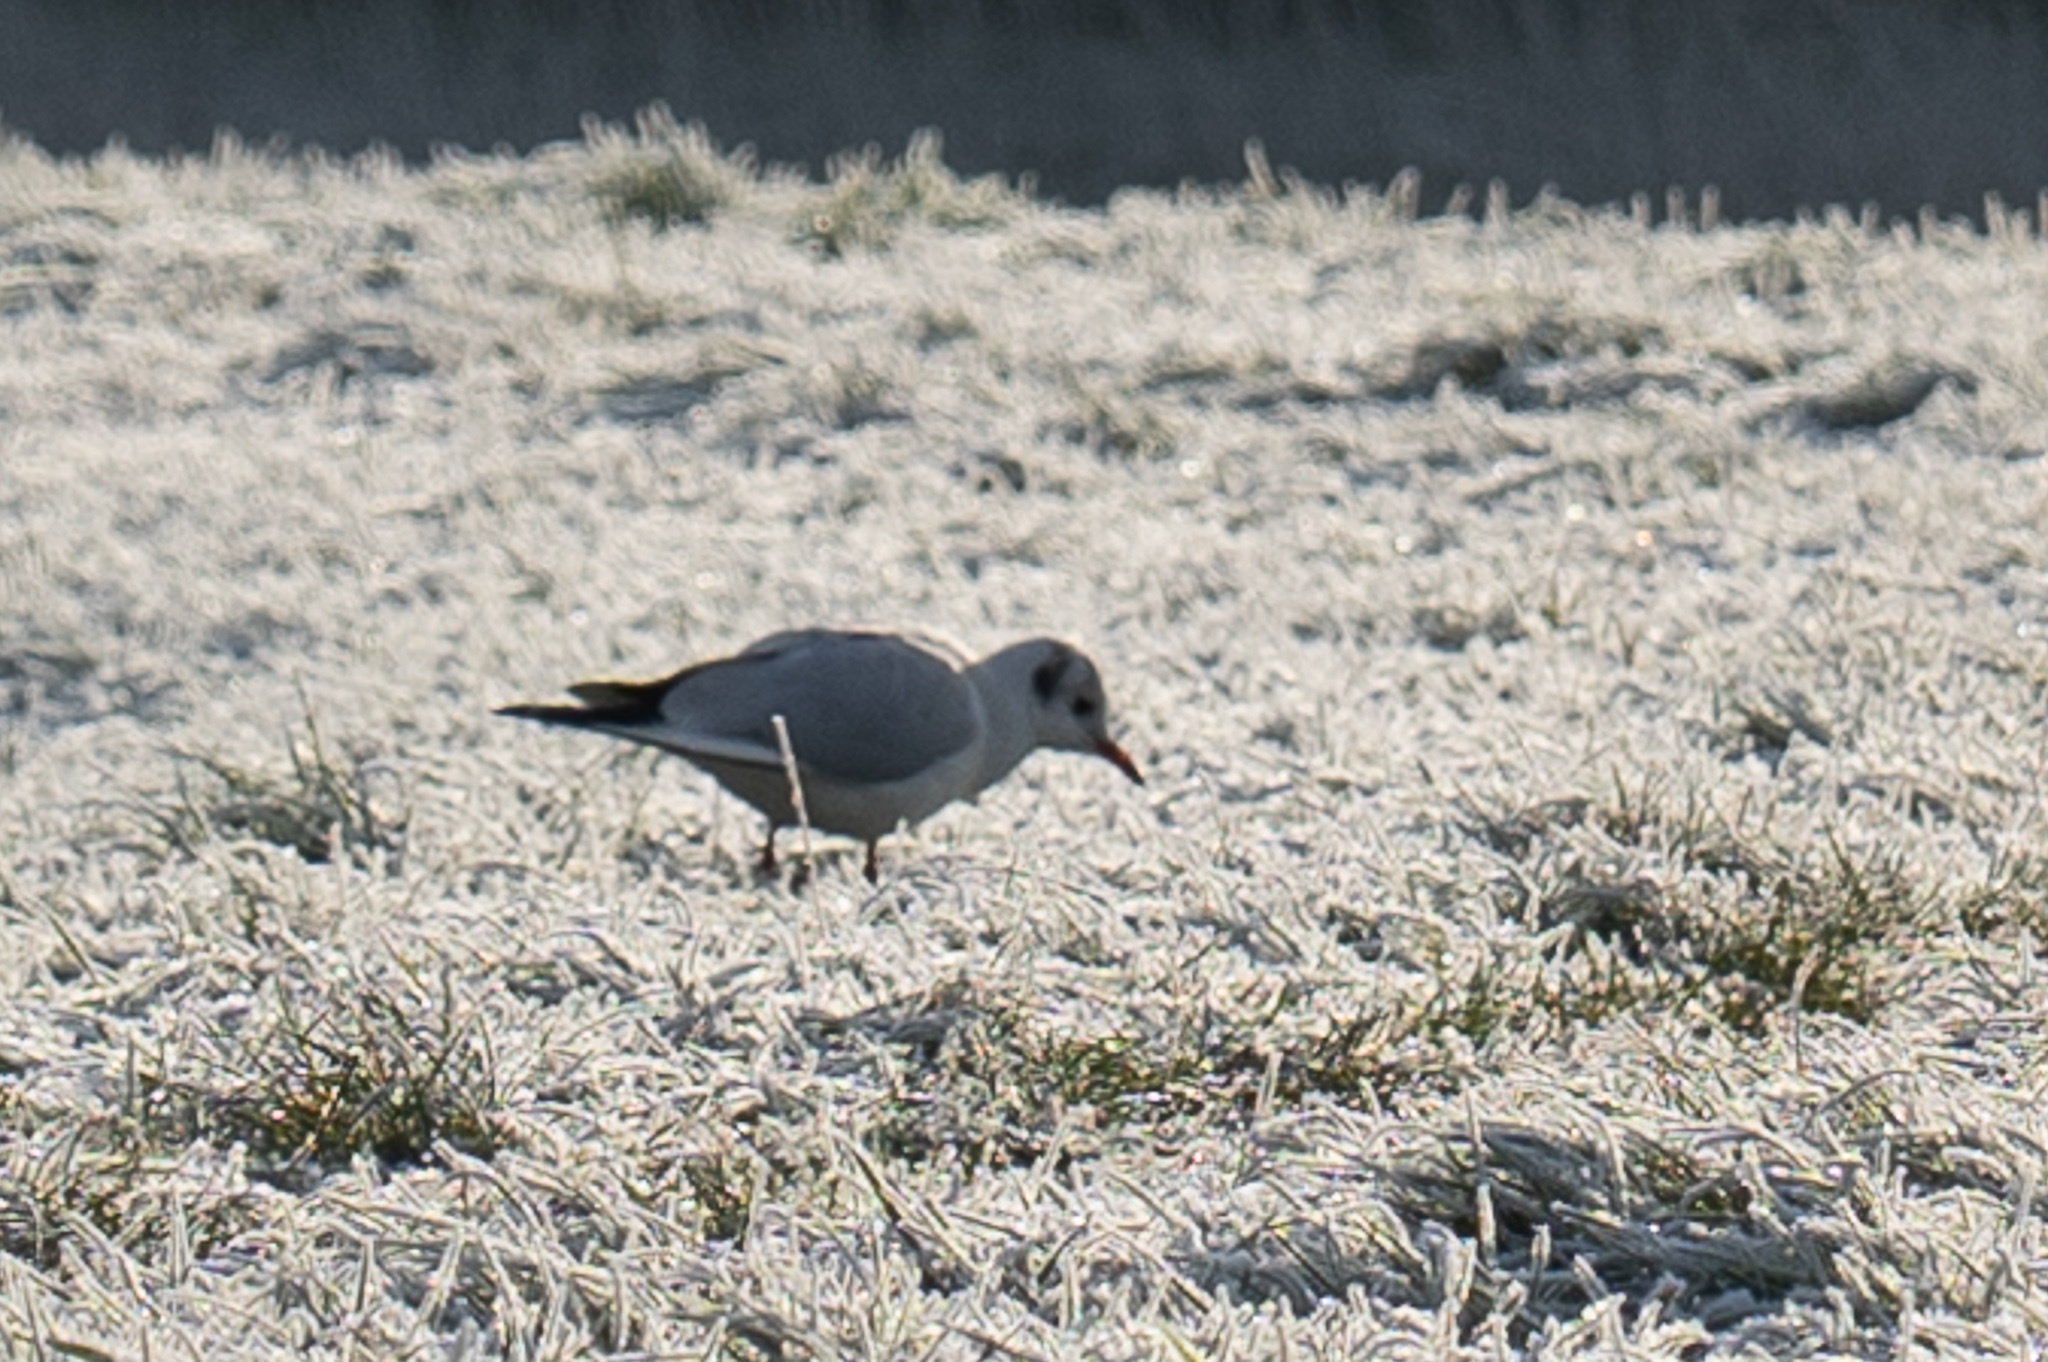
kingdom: Animalia
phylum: Chordata
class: Aves
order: Charadriiformes
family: Laridae
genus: Chroicocephalus
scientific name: Chroicocephalus ridibundus
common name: Black-headed gull
